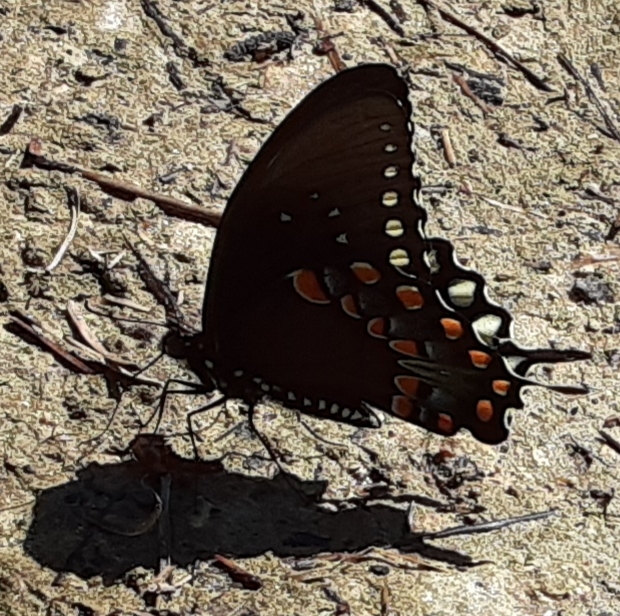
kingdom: Animalia
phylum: Arthropoda
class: Insecta
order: Lepidoptera
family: Papilionidae
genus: Papilio
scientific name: Papilio troilus
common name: Spicebush swallowtail
